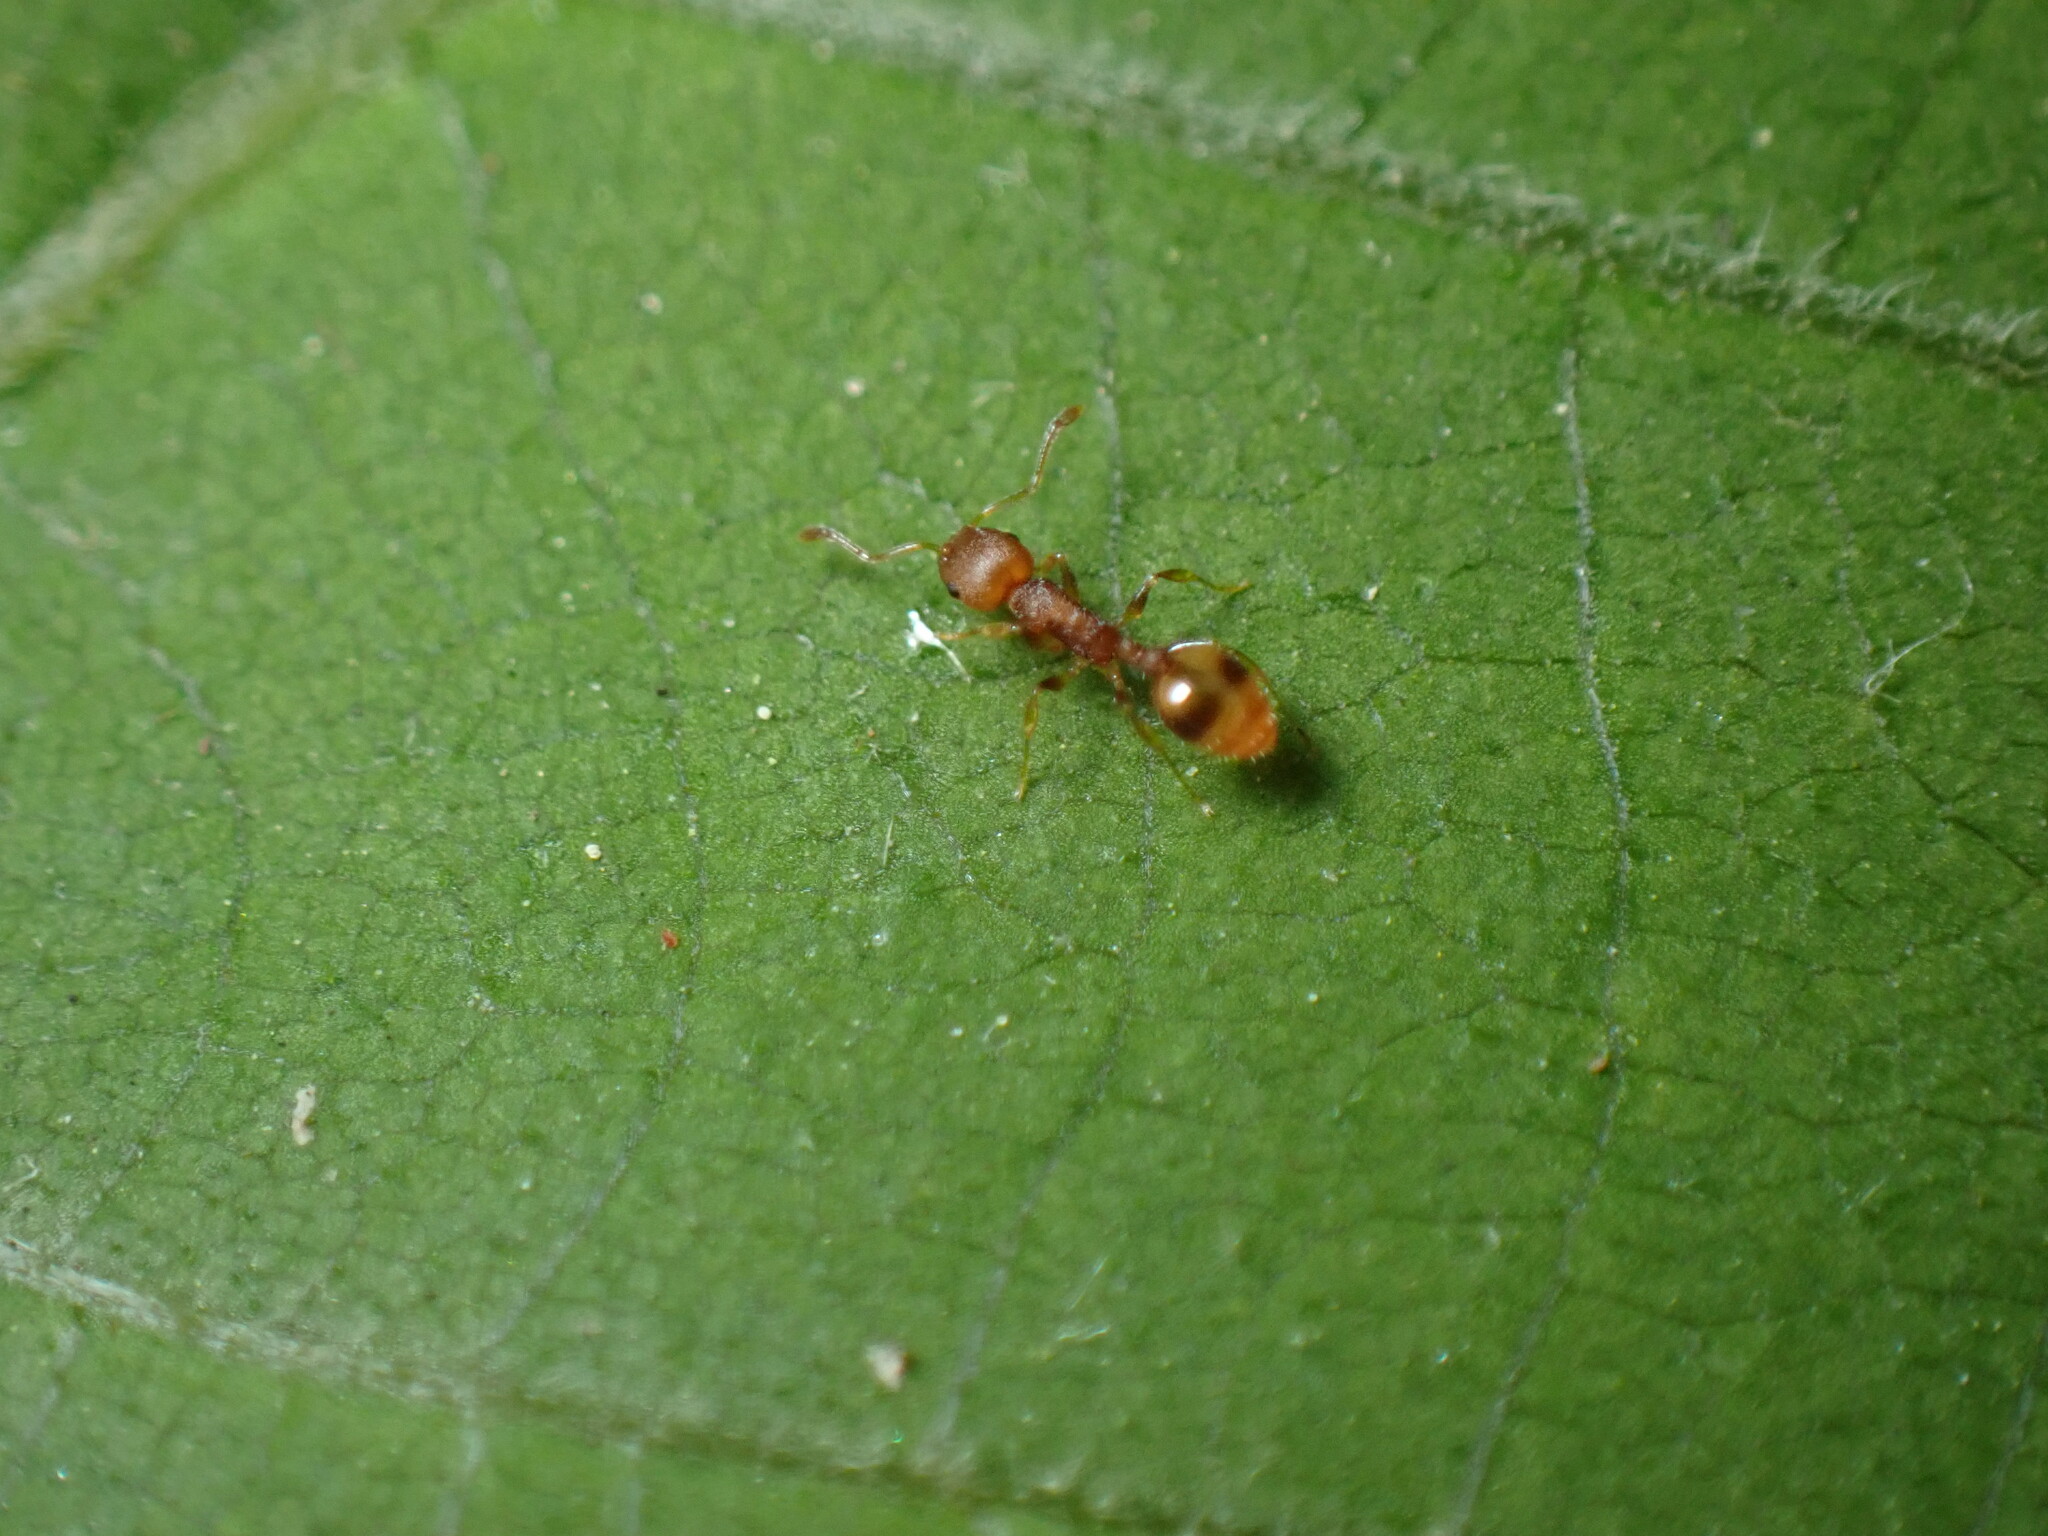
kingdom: Animalia
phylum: Arthropoda
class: Insecta
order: Hymenoptera
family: Formicidae
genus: Temnothorax
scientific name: Temnothorax curvispinosus
